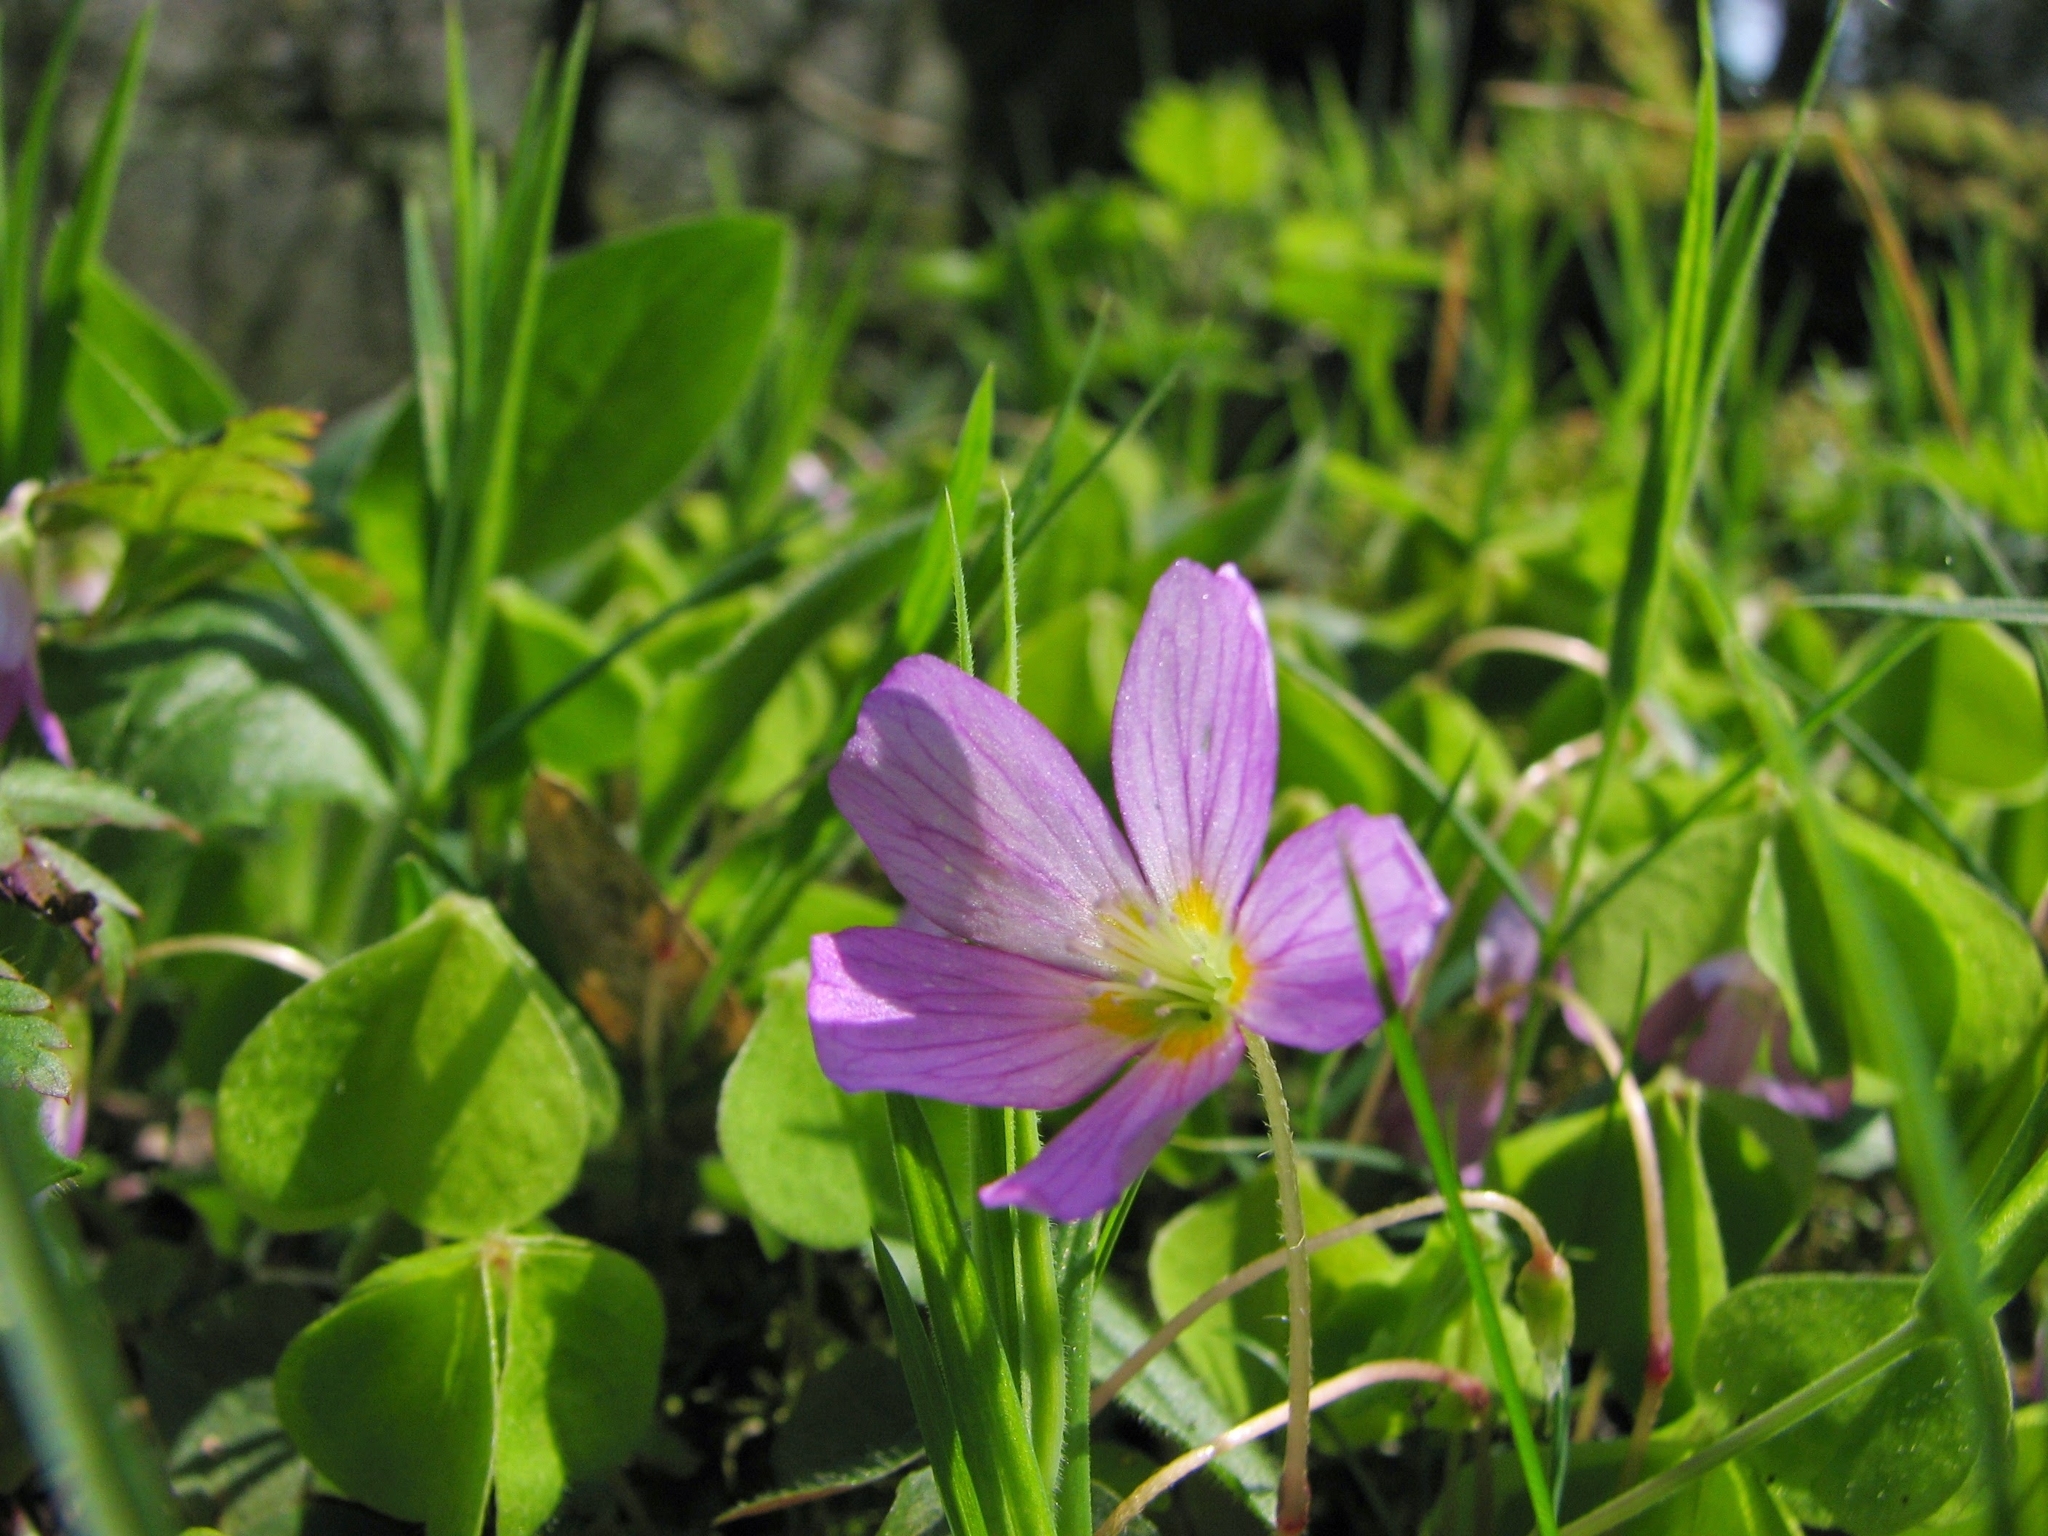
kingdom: Plantae
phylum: Tracheophyta
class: Magnoliopsida
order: Oxalidales
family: Oxalidaceae
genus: Oxalis
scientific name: Oxalis acetosella
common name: Wood-sorrel
